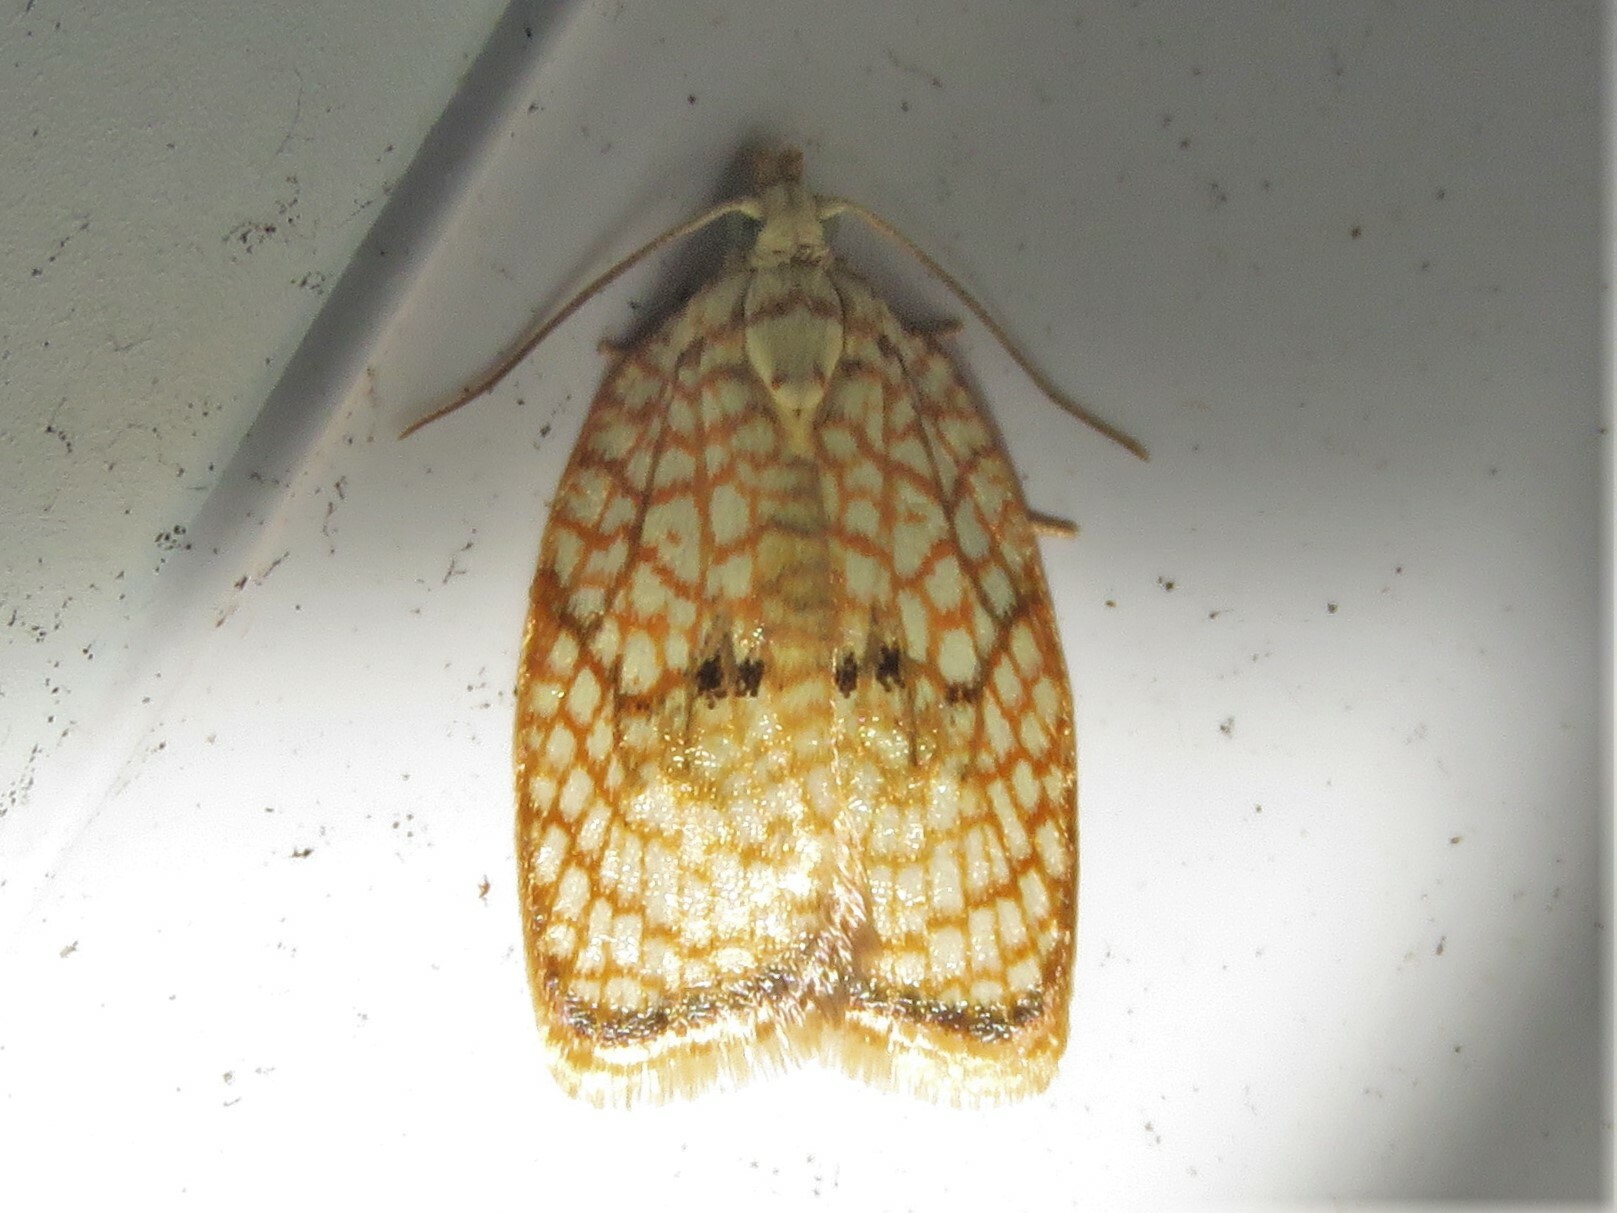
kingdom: Animalia
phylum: Arthropoda
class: Insecta
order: Lepidoptera
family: Tortricidae
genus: Acleris
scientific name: Acleris forsskaleana
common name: Maple button
